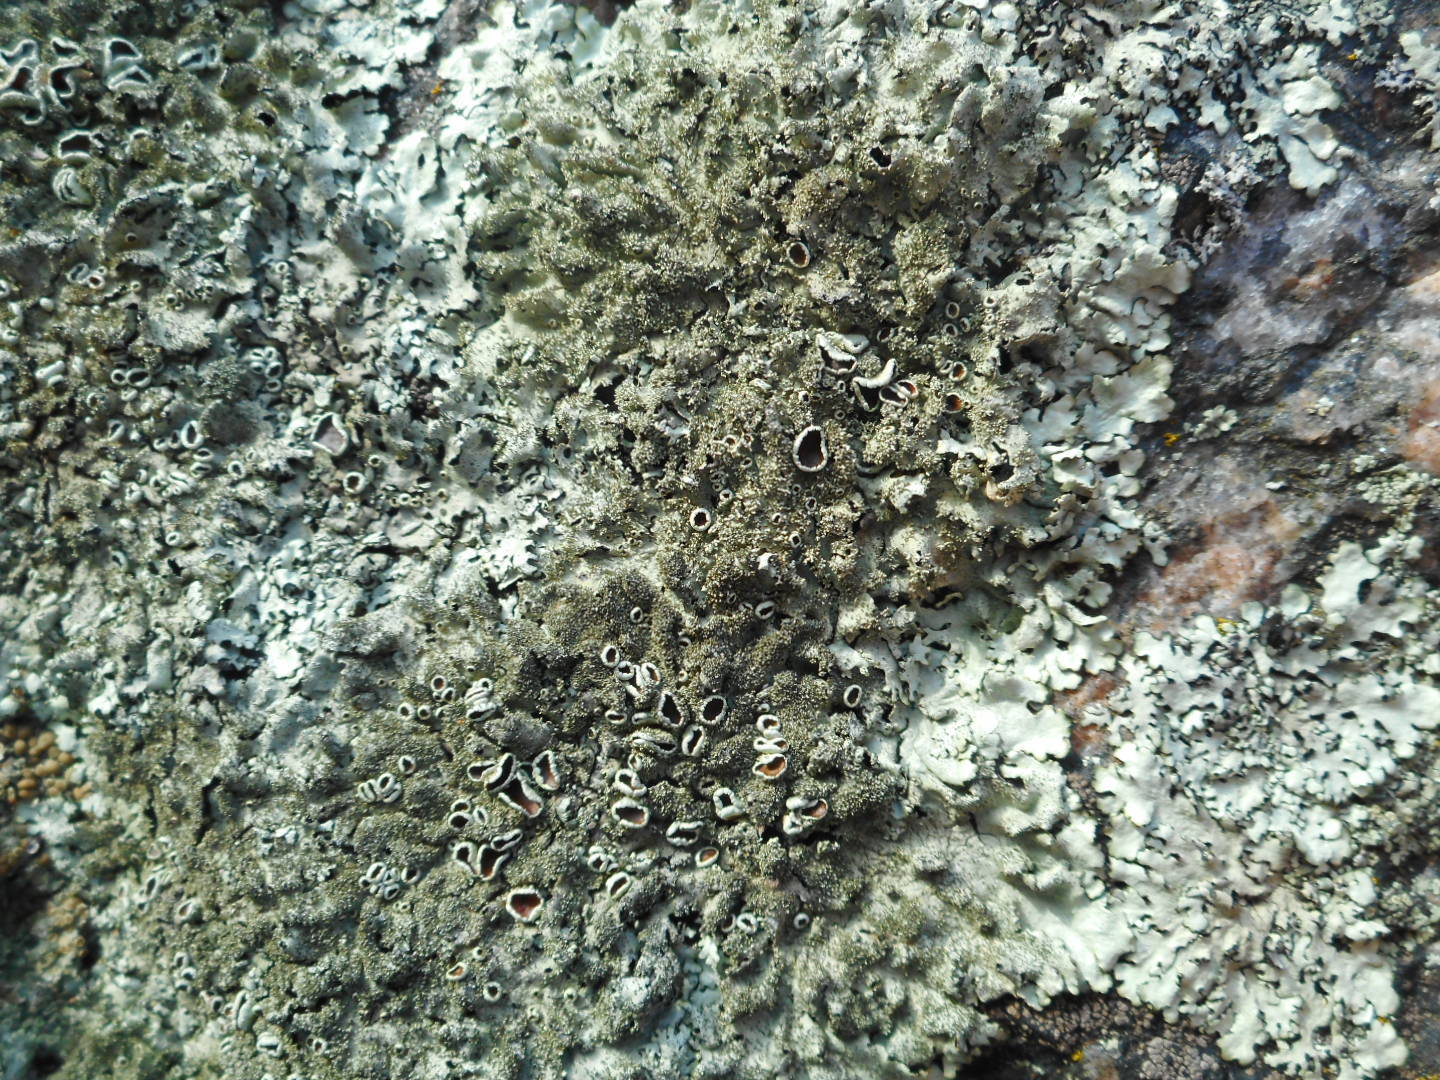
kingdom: Fungi
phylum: Ascomycota
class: Lecanoromycetes
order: Lecanorales
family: Parmeliaceae
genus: Xanthoparmelia
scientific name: Xanthoparmelia conspersa
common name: Peppered rock shield
